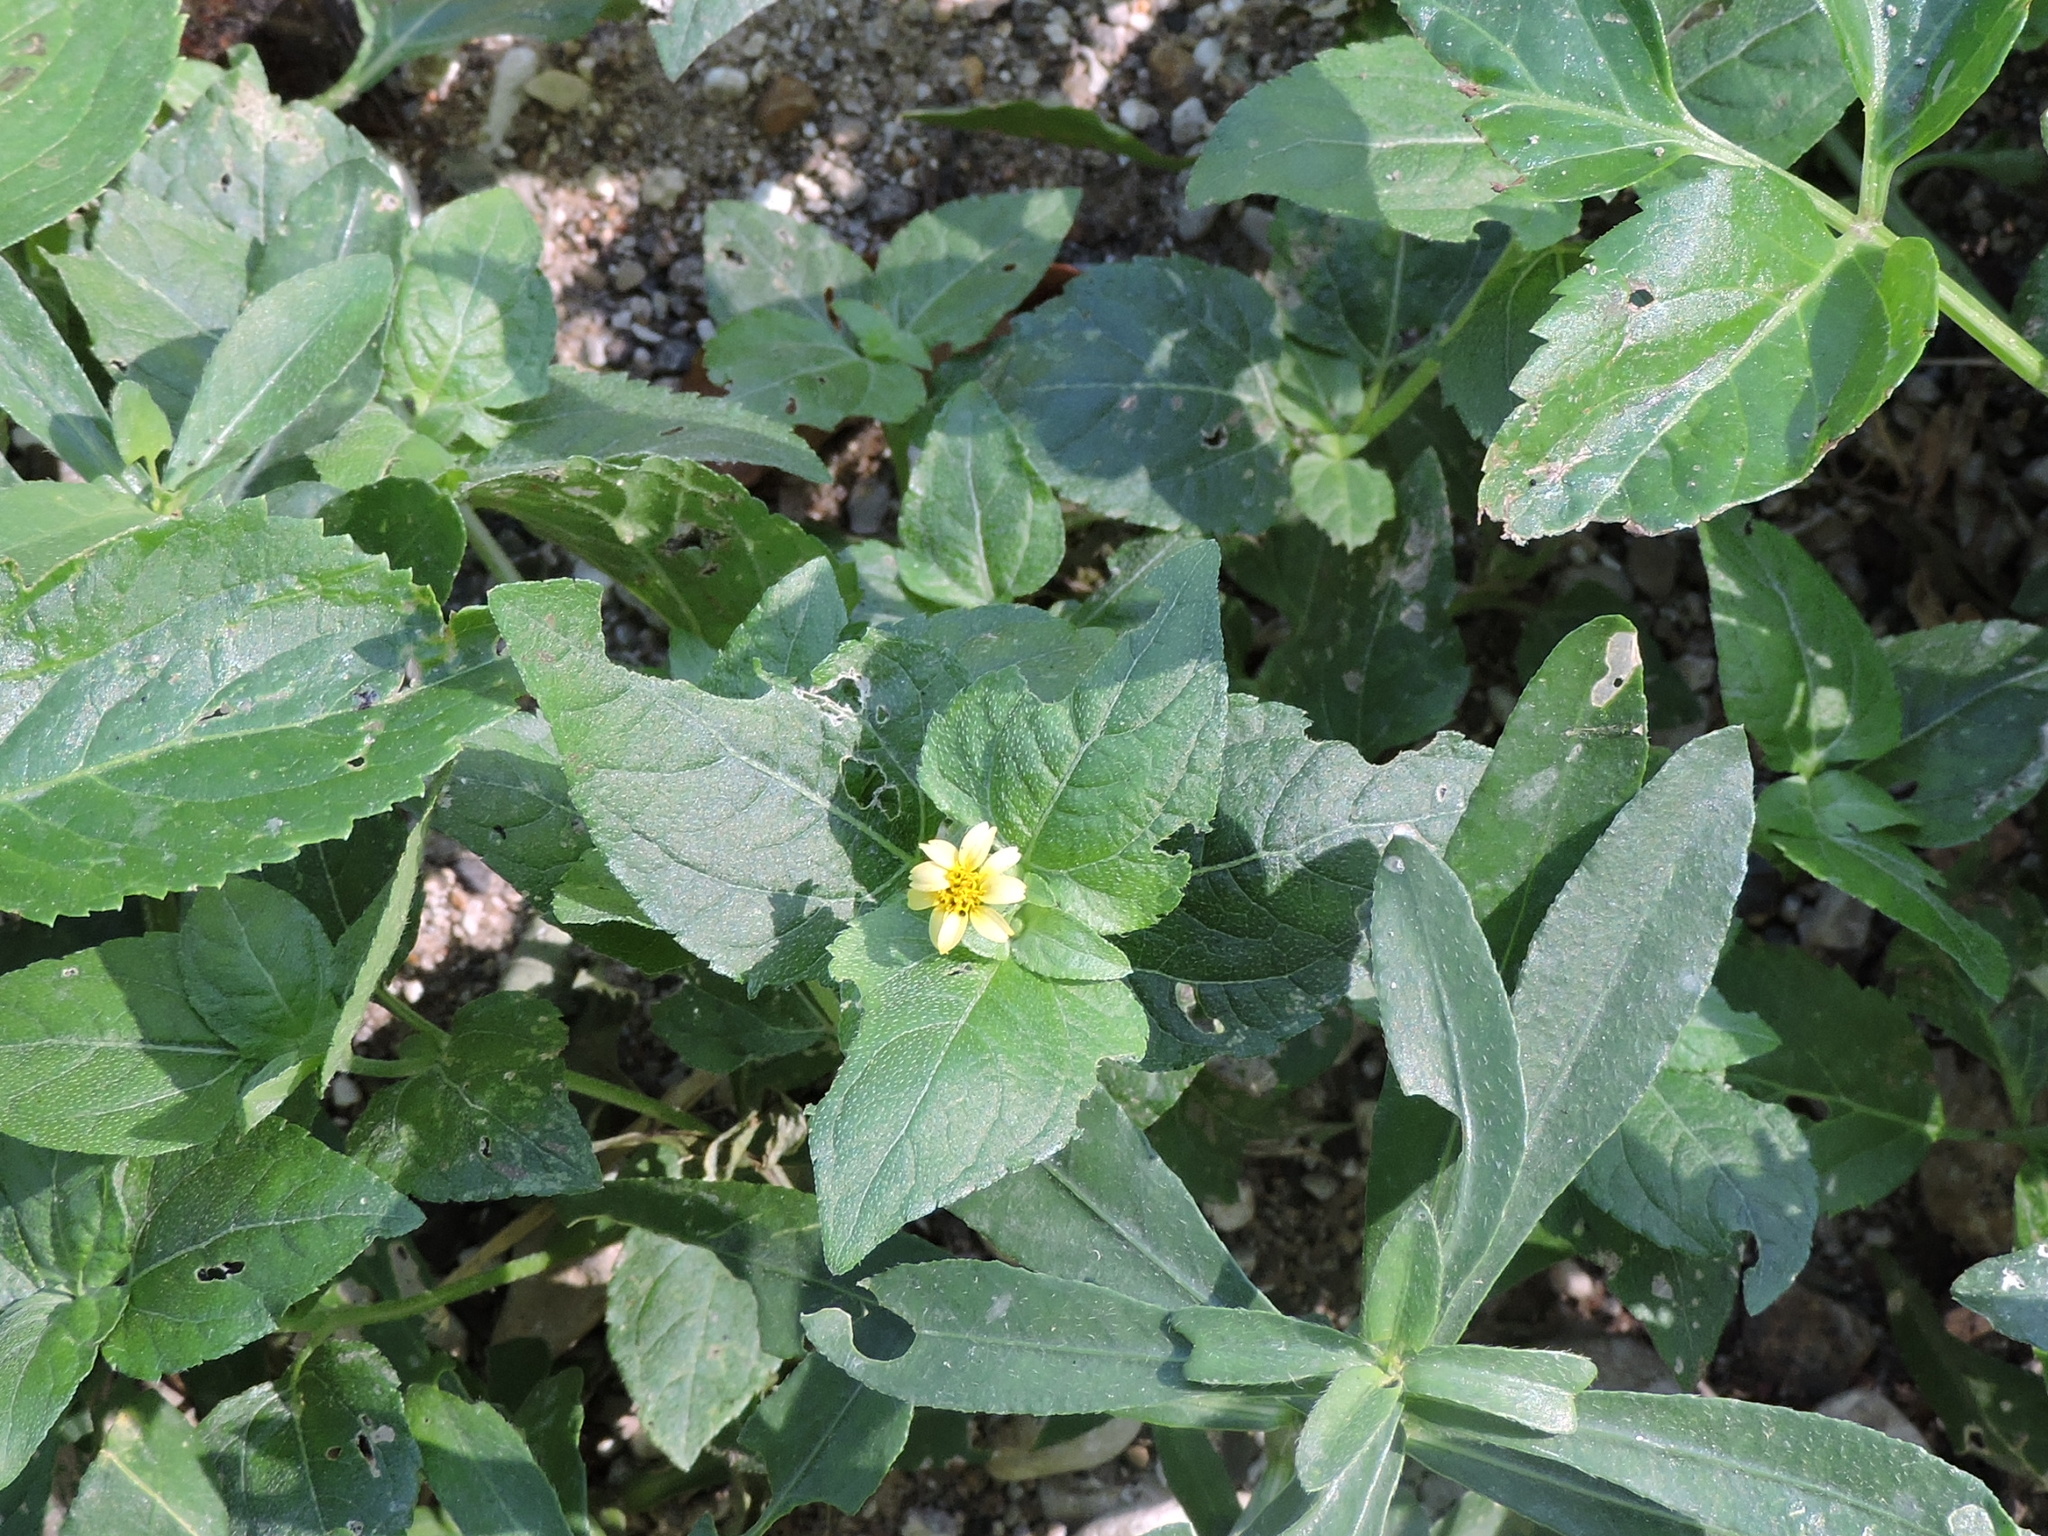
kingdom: Plantae
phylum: Tracheophyta
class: Magnoliopsida
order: Asterales
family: Asteraceae
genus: Calyptocarpus
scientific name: Calyptocarpus vialis
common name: Straggler daisy
